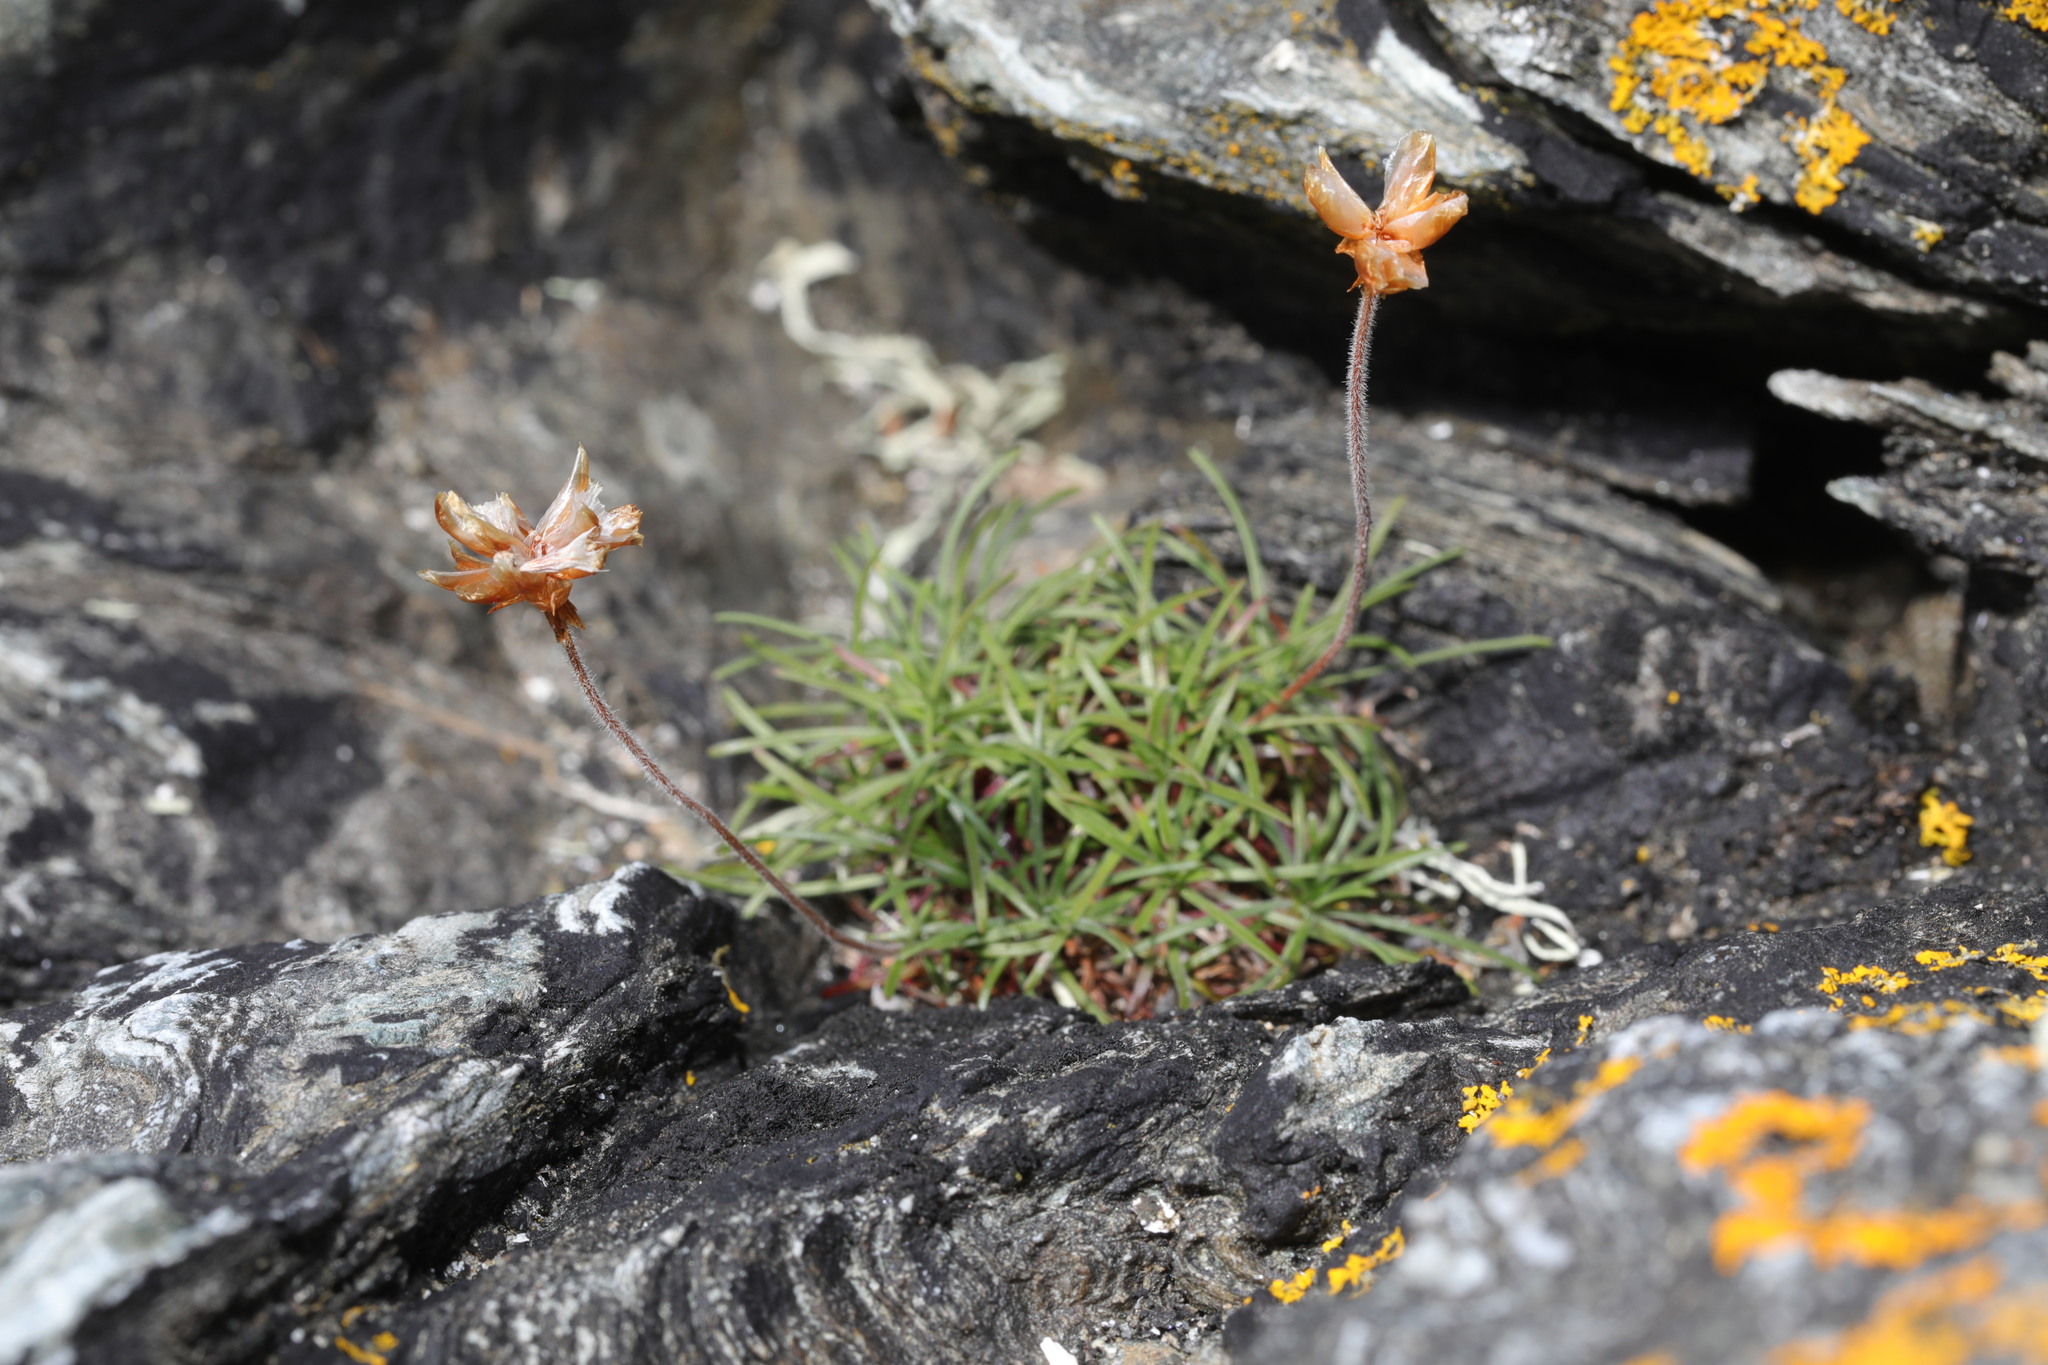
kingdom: Plantae
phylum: Tracheophyta
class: Magnoliopsida
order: Caryophyllales
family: Plumbaginaceae
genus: Armeria
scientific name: Armeria maritima
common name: Thrift
